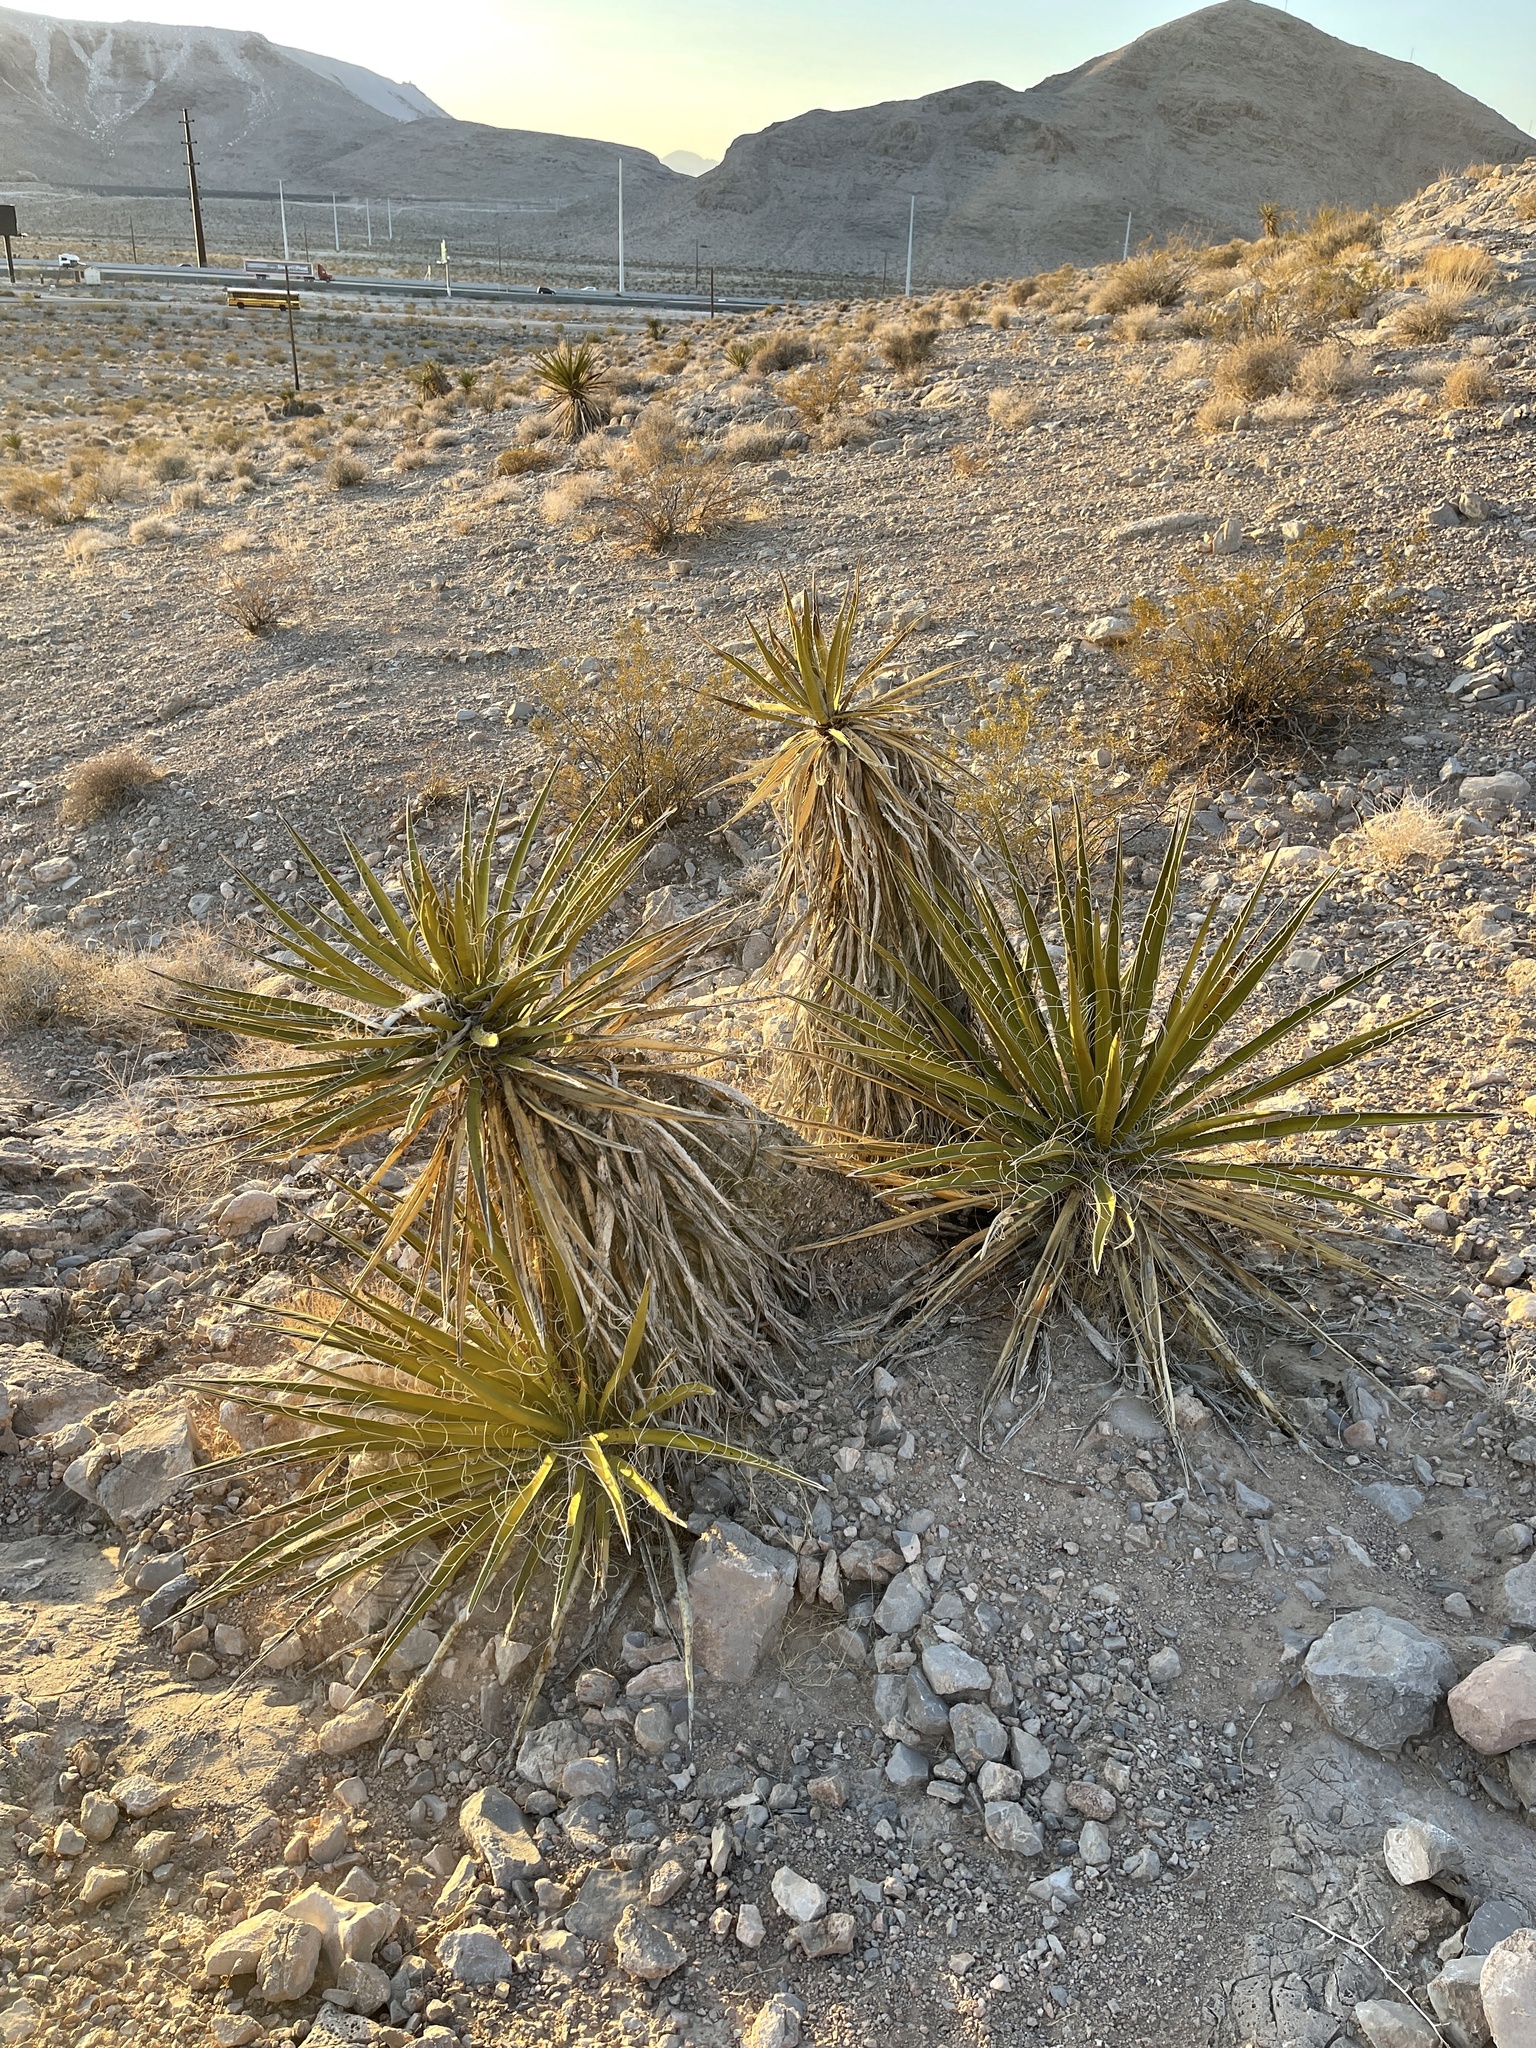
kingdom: Plantae
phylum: Tracheophyta
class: Liliopsida
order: Asparagales
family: Asparagaceae
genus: Yucca
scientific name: Yucca schidigera
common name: Mojave yucca
